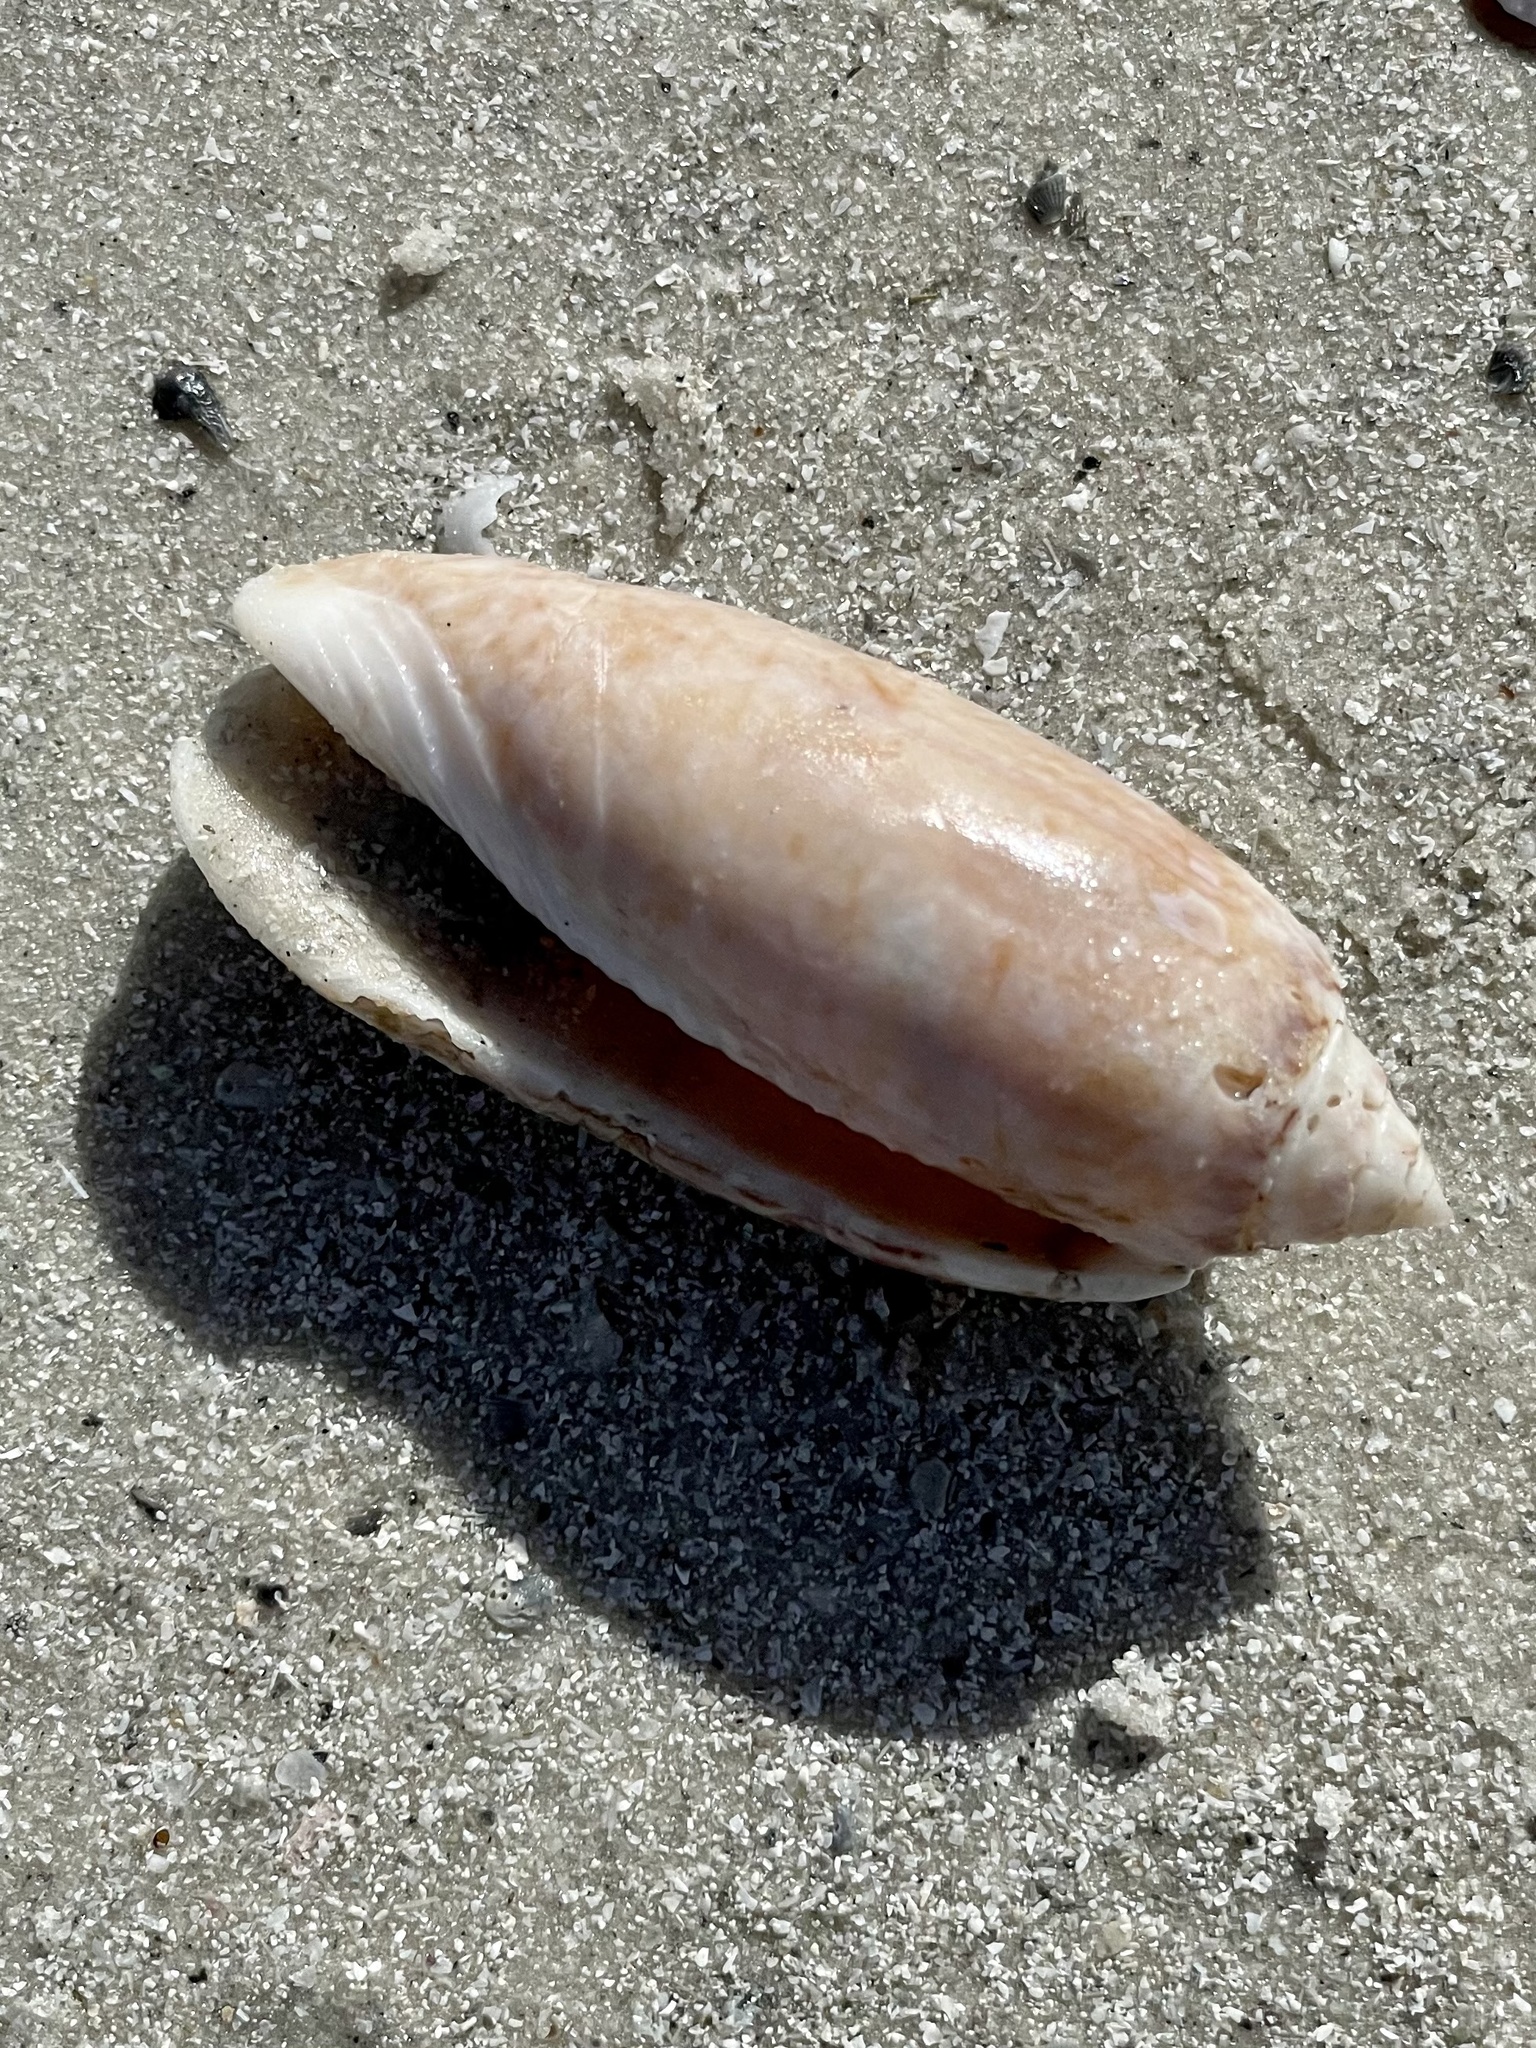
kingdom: Animalia
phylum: Mollusca
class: Gastropoda
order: Neogastropoda
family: Olividae
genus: Oliva
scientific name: Oliva sayana
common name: Lettered olive
